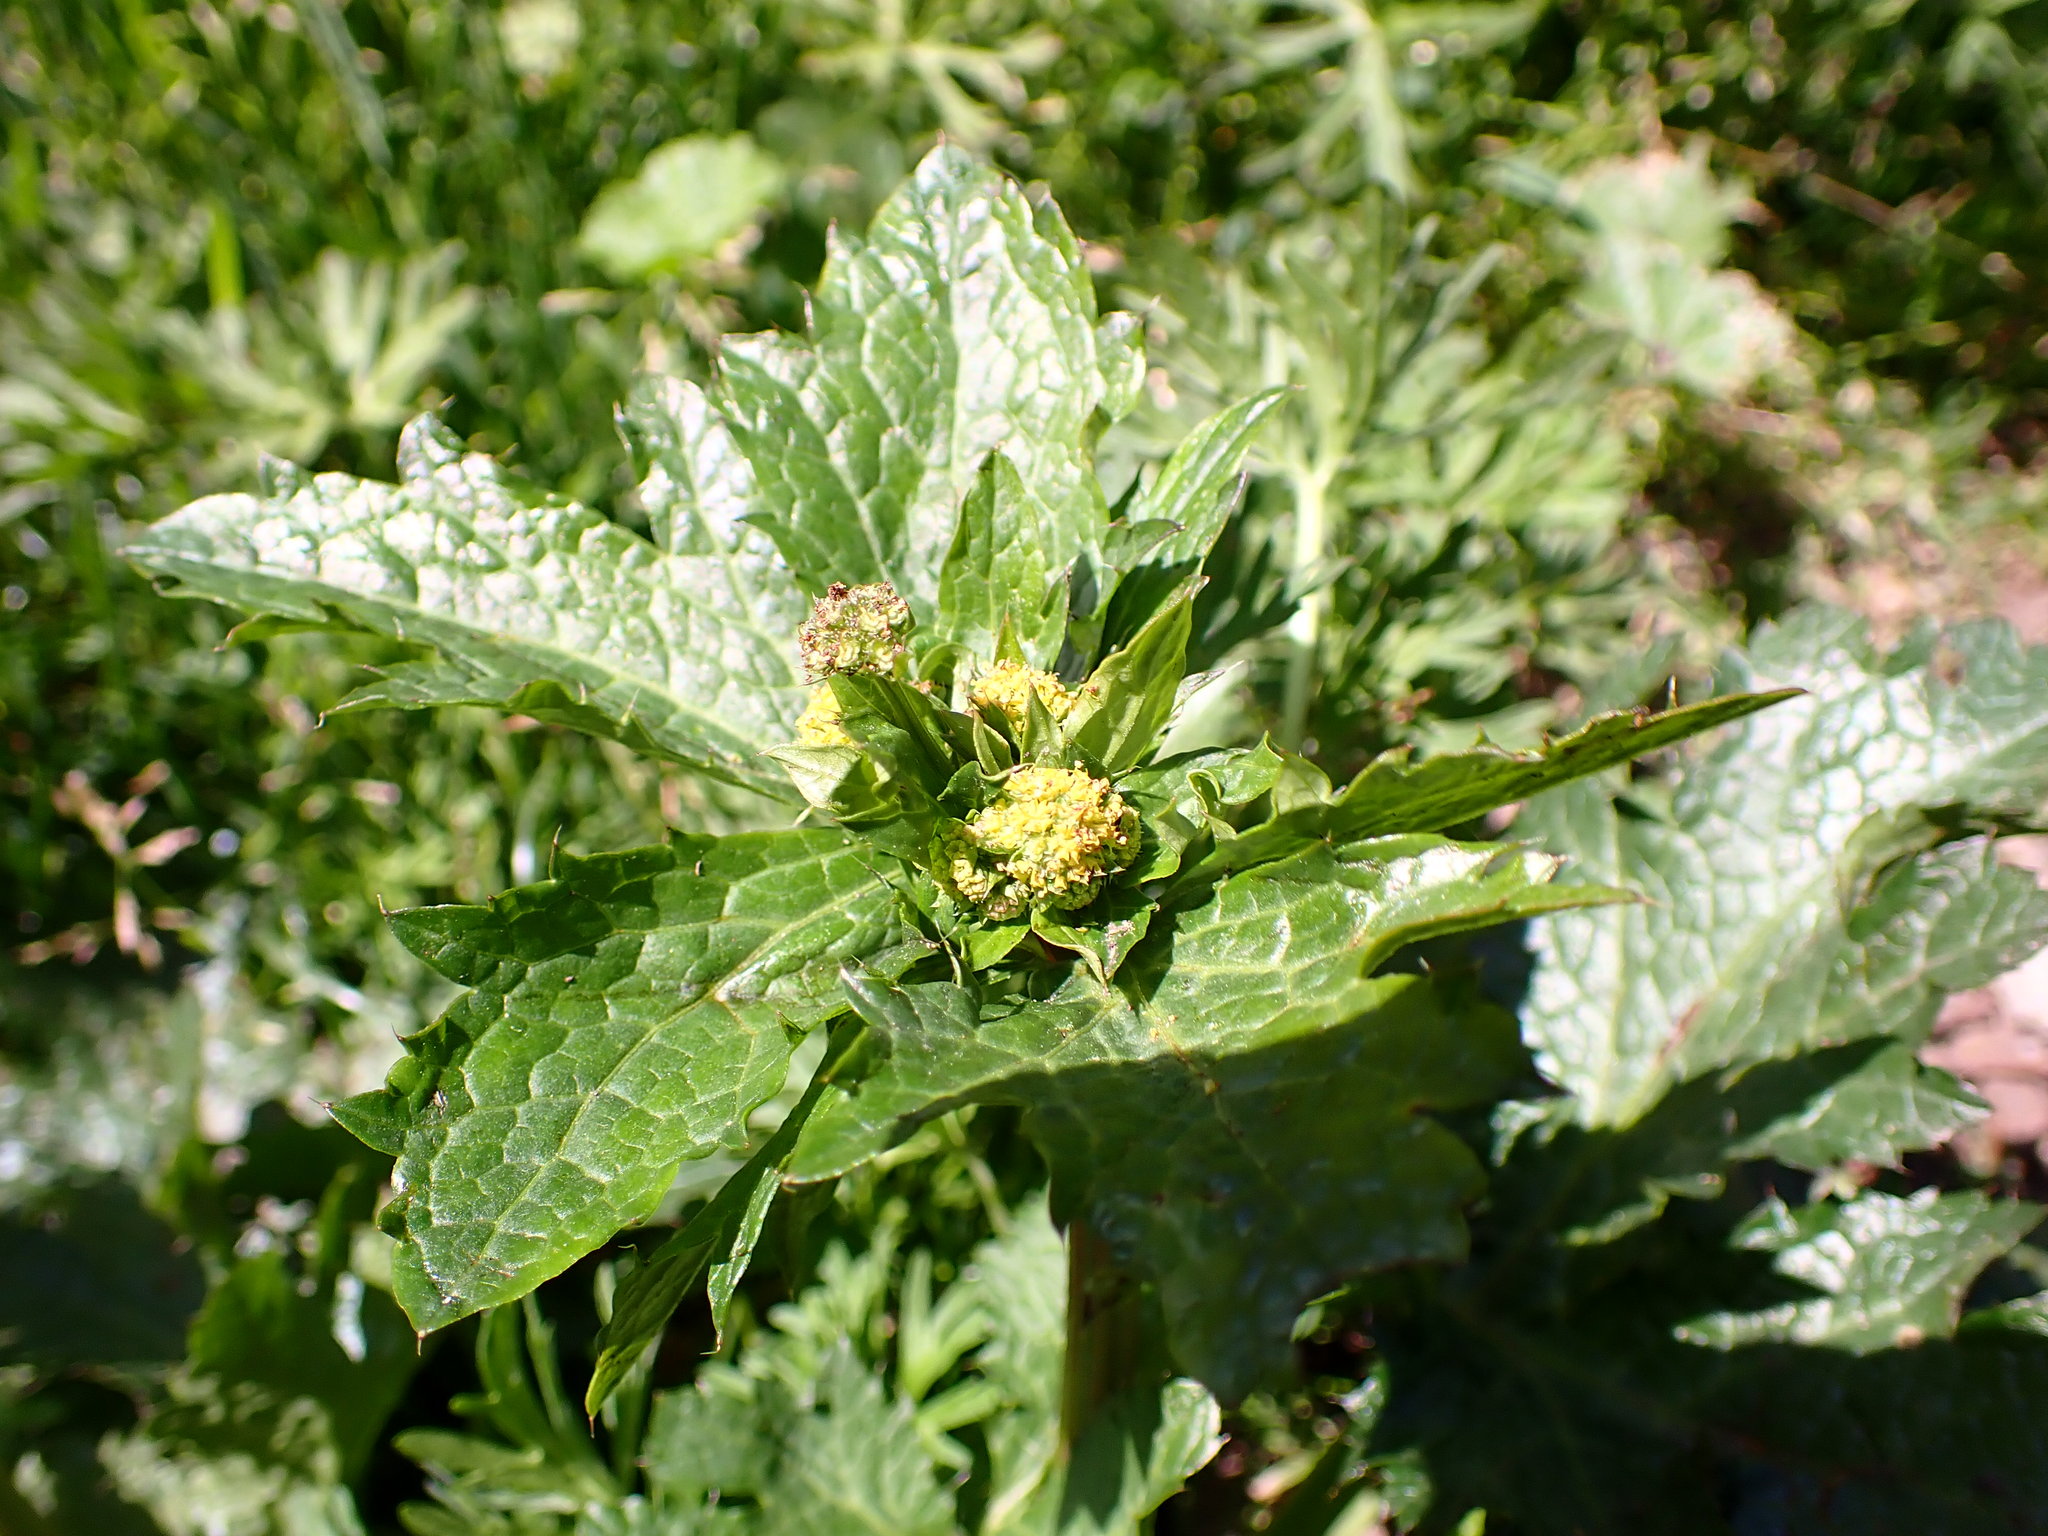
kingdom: Plantae
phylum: Tracheophyta
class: Magnoliopsida
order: Apiales
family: Apiaceae
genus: Sanicula
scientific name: Sanicula crassicaulis
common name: Western snakeroot
